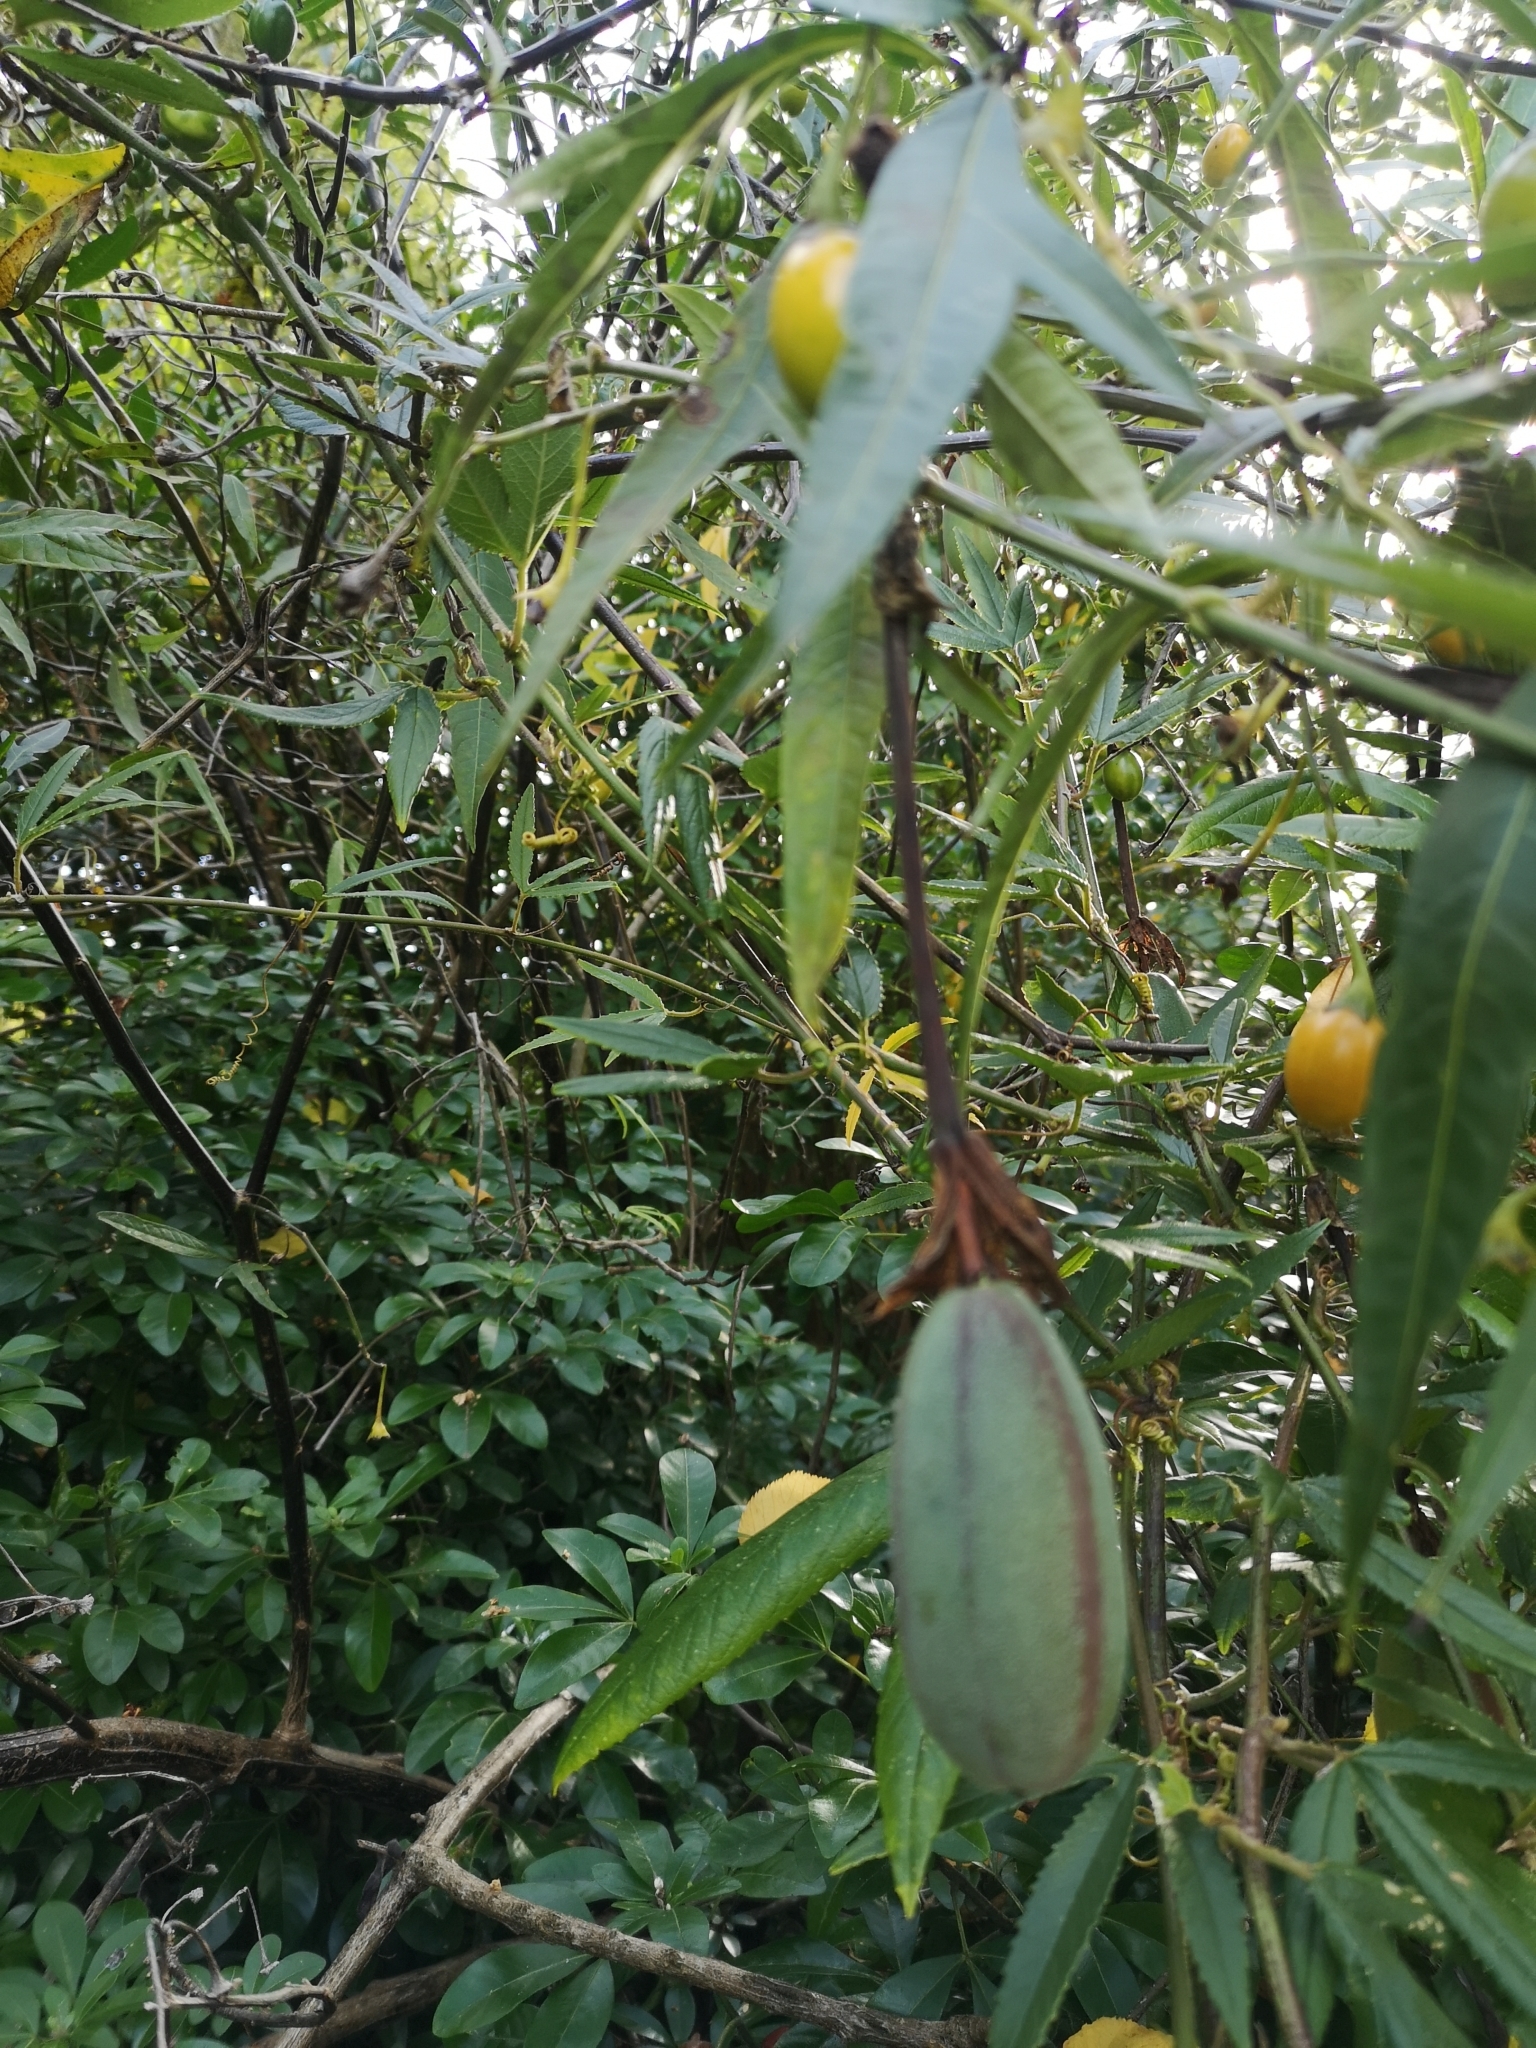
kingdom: Plantae
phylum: Tracheophyta
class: Magnoliopsida
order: Malpighiales
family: Passifloraceae
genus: Passiflora
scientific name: Passiflora tripartita
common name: Banana poka
